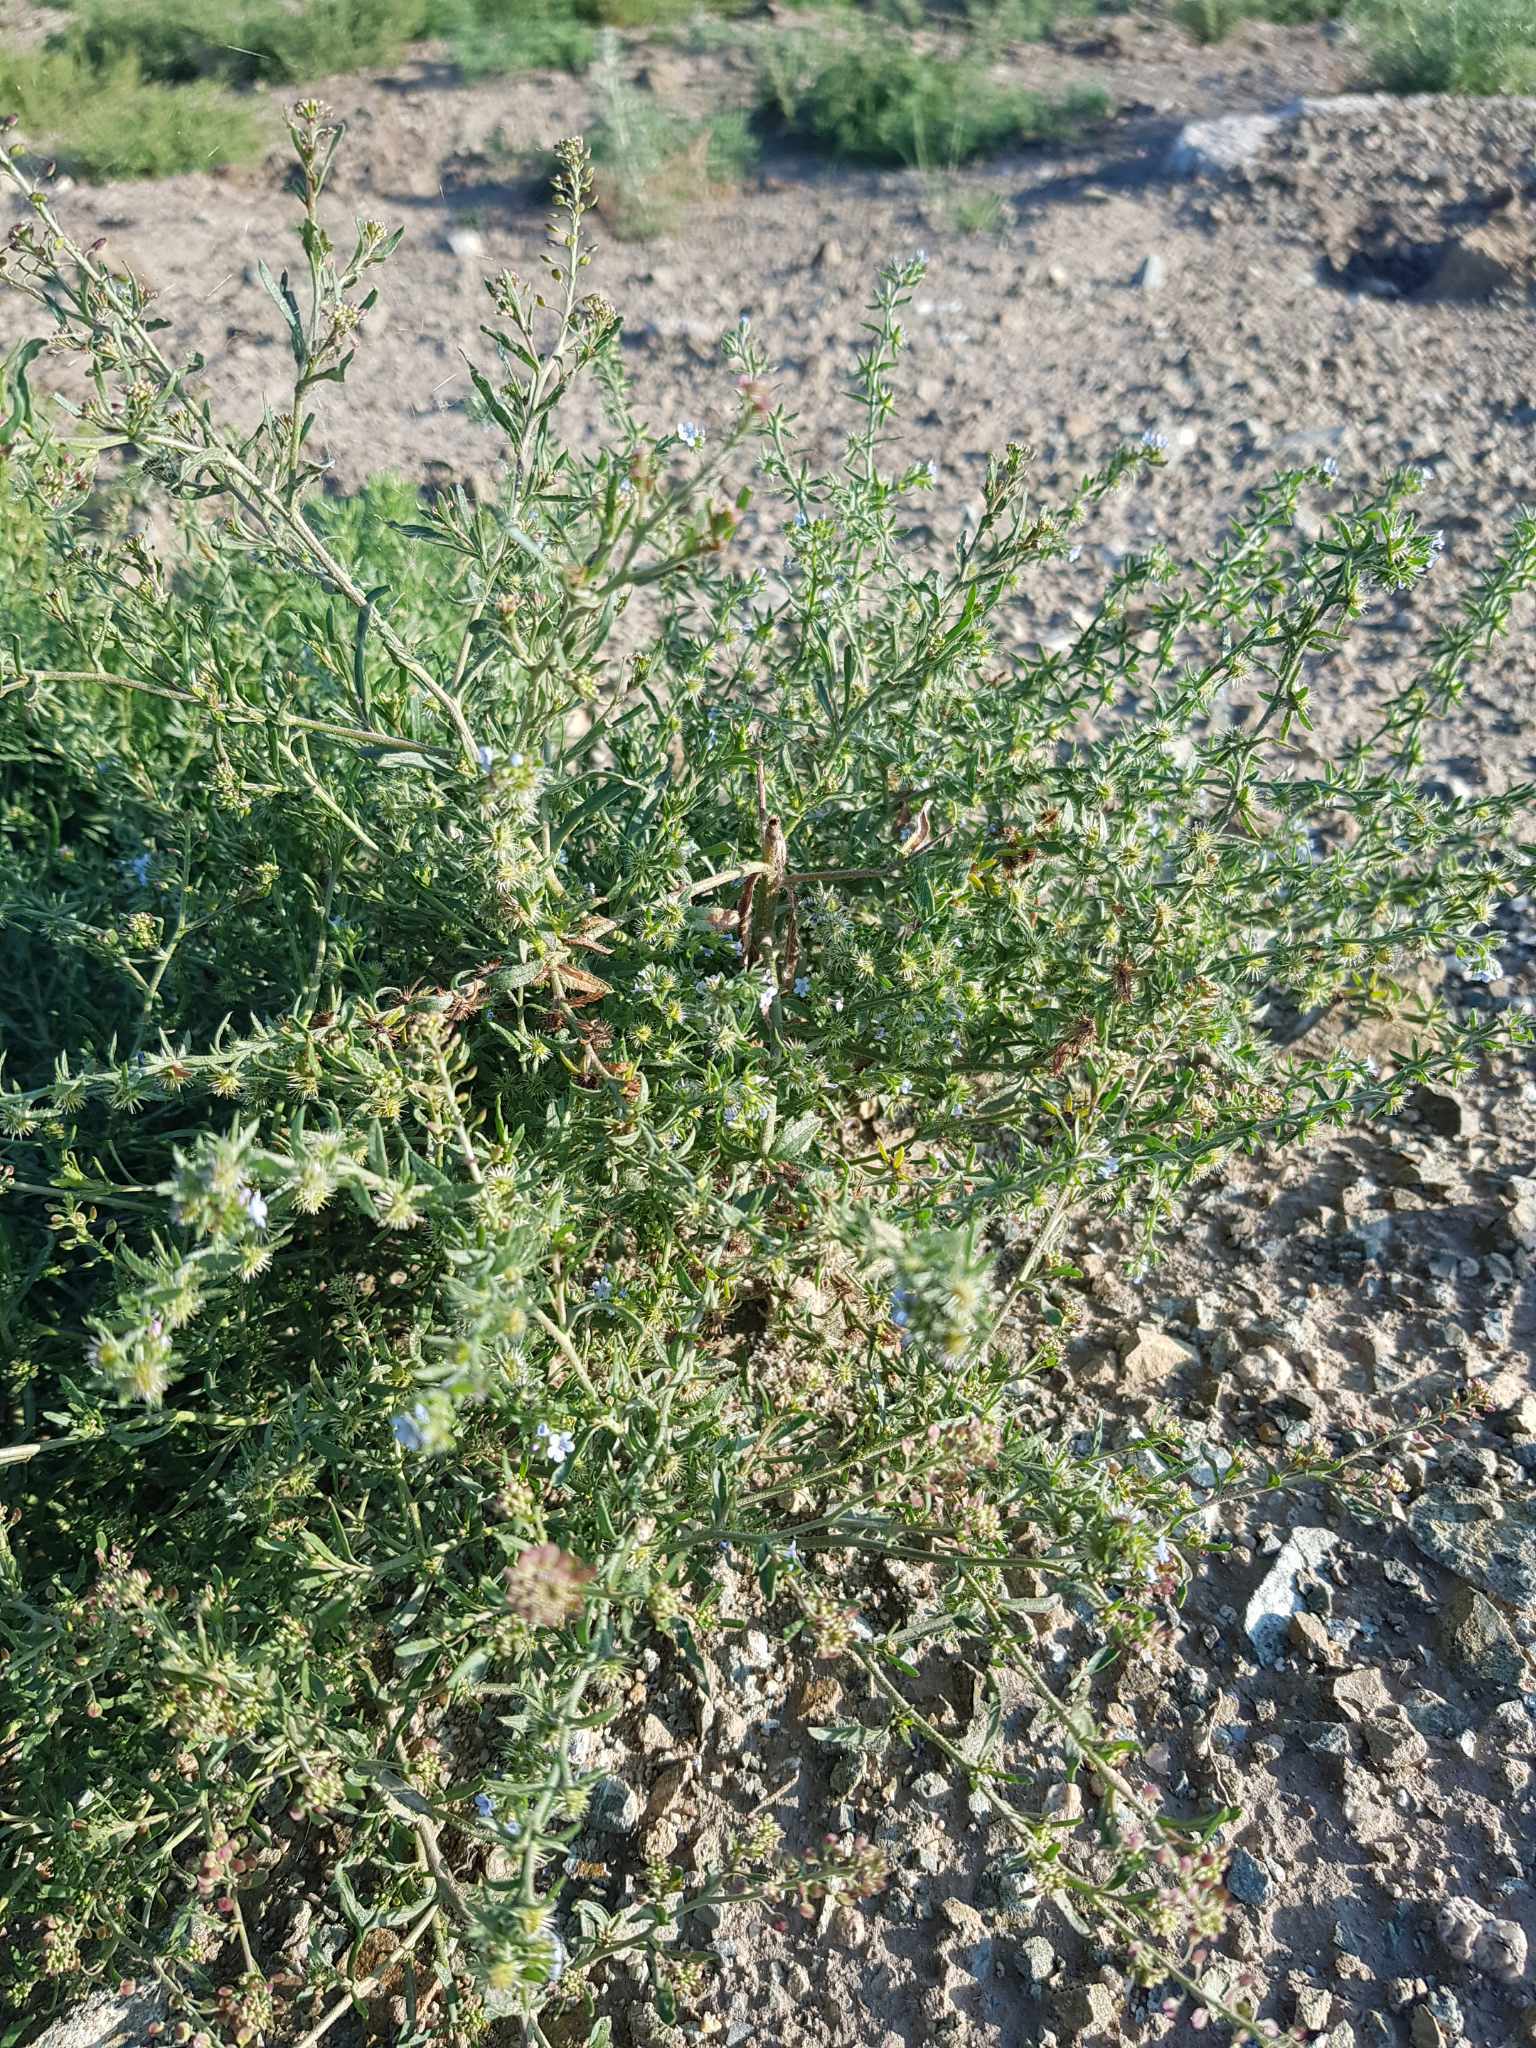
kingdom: Plantae
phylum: Tracheophyta
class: Magnoliopsida
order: Boraginales
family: Boraginaceae
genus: Lappula
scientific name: Lappula squarrosa
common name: European stickseed
